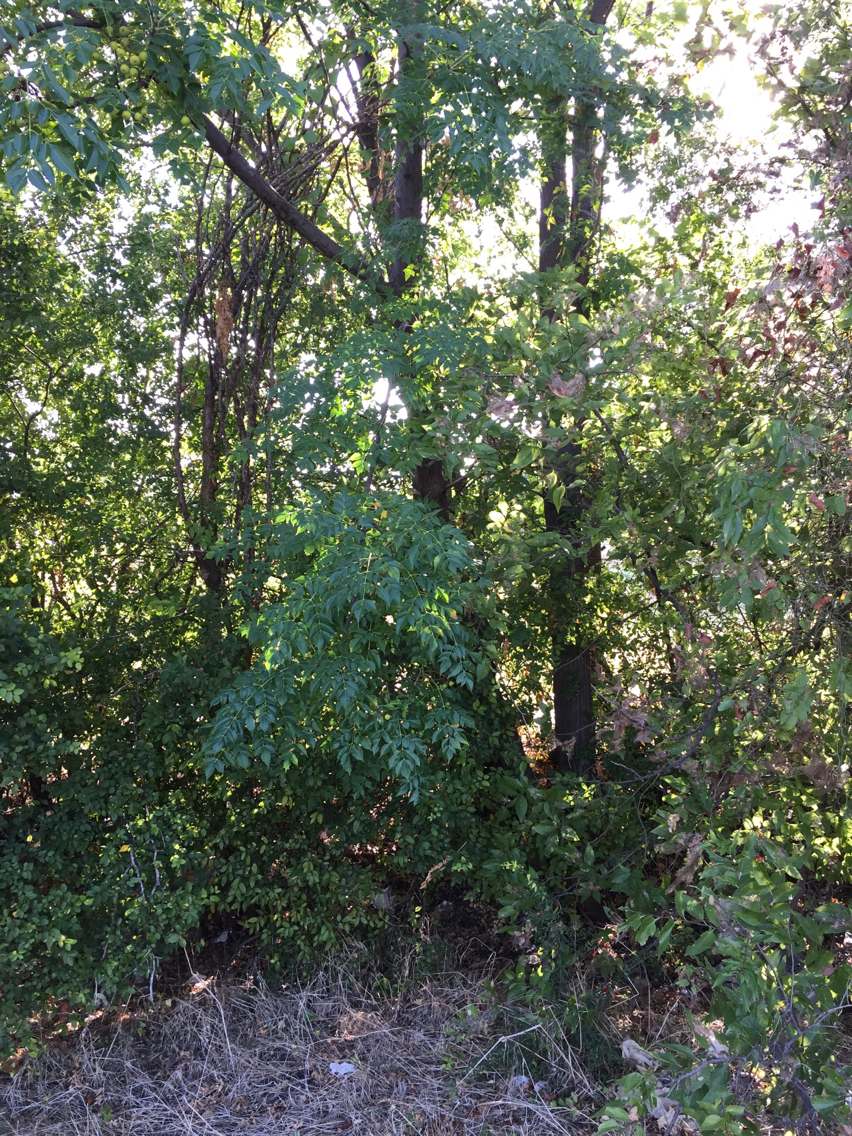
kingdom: Plantae
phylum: Tracheophyta
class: Magnoliopsida
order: Sapindales
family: Meliaceae
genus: Melia
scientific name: Melia azedarach
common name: Chinaberrytree
